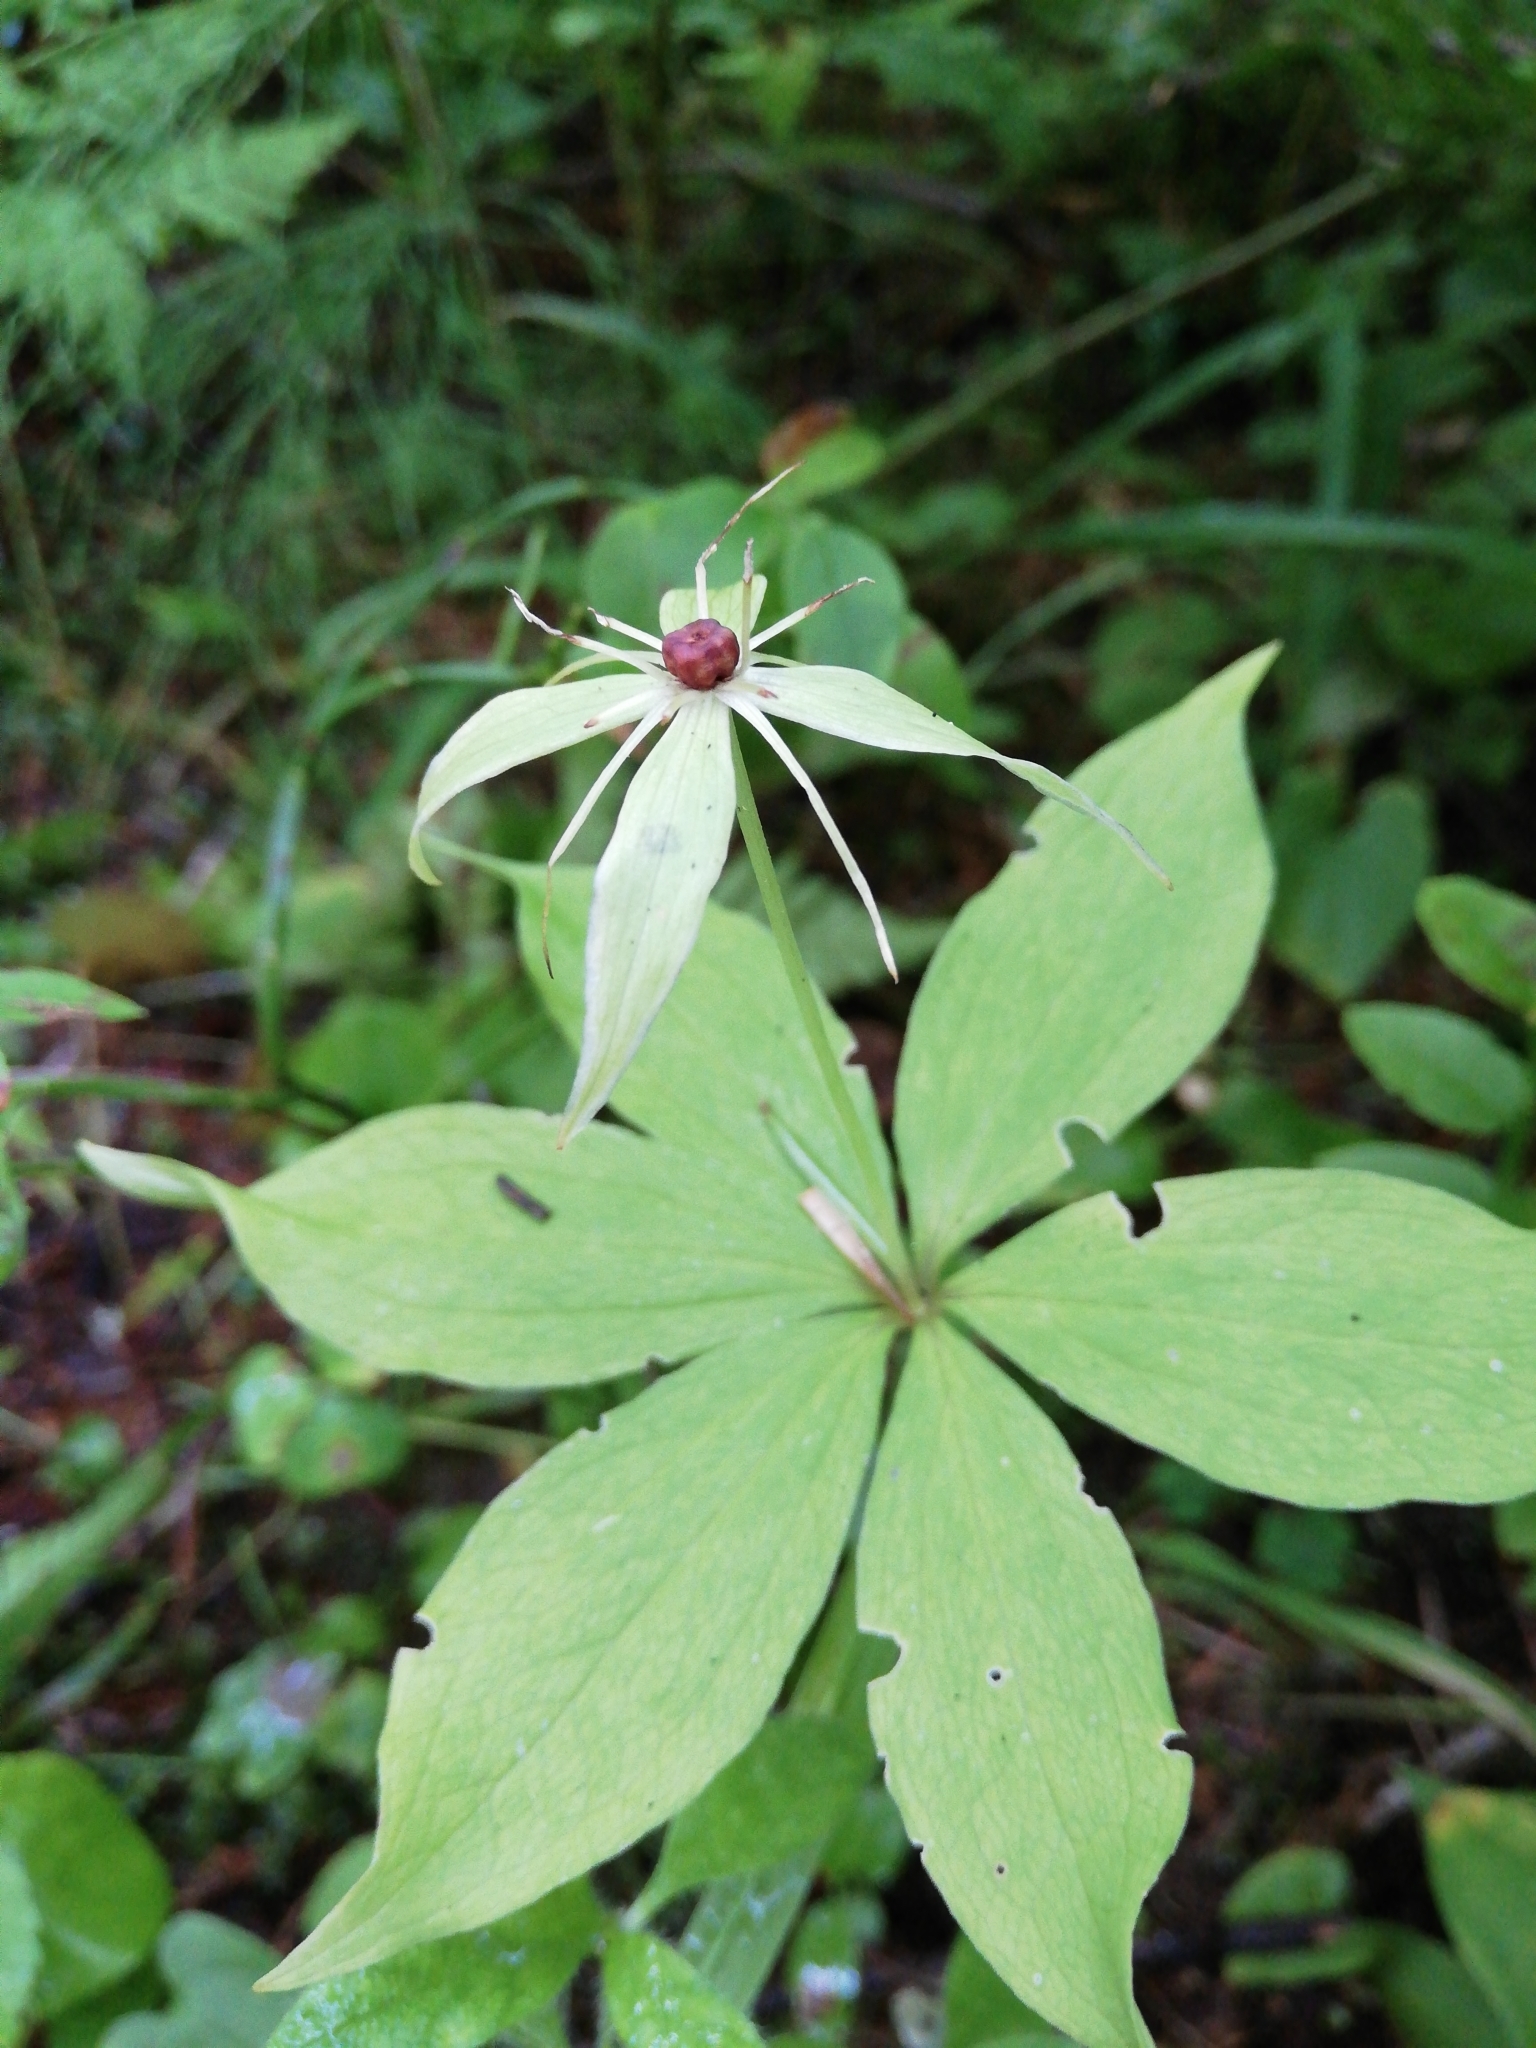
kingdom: Plantae
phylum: Tracheophyta
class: Liliopsida
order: Liliales
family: Melanthiaceae
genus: Paris
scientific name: Paris verticillata
